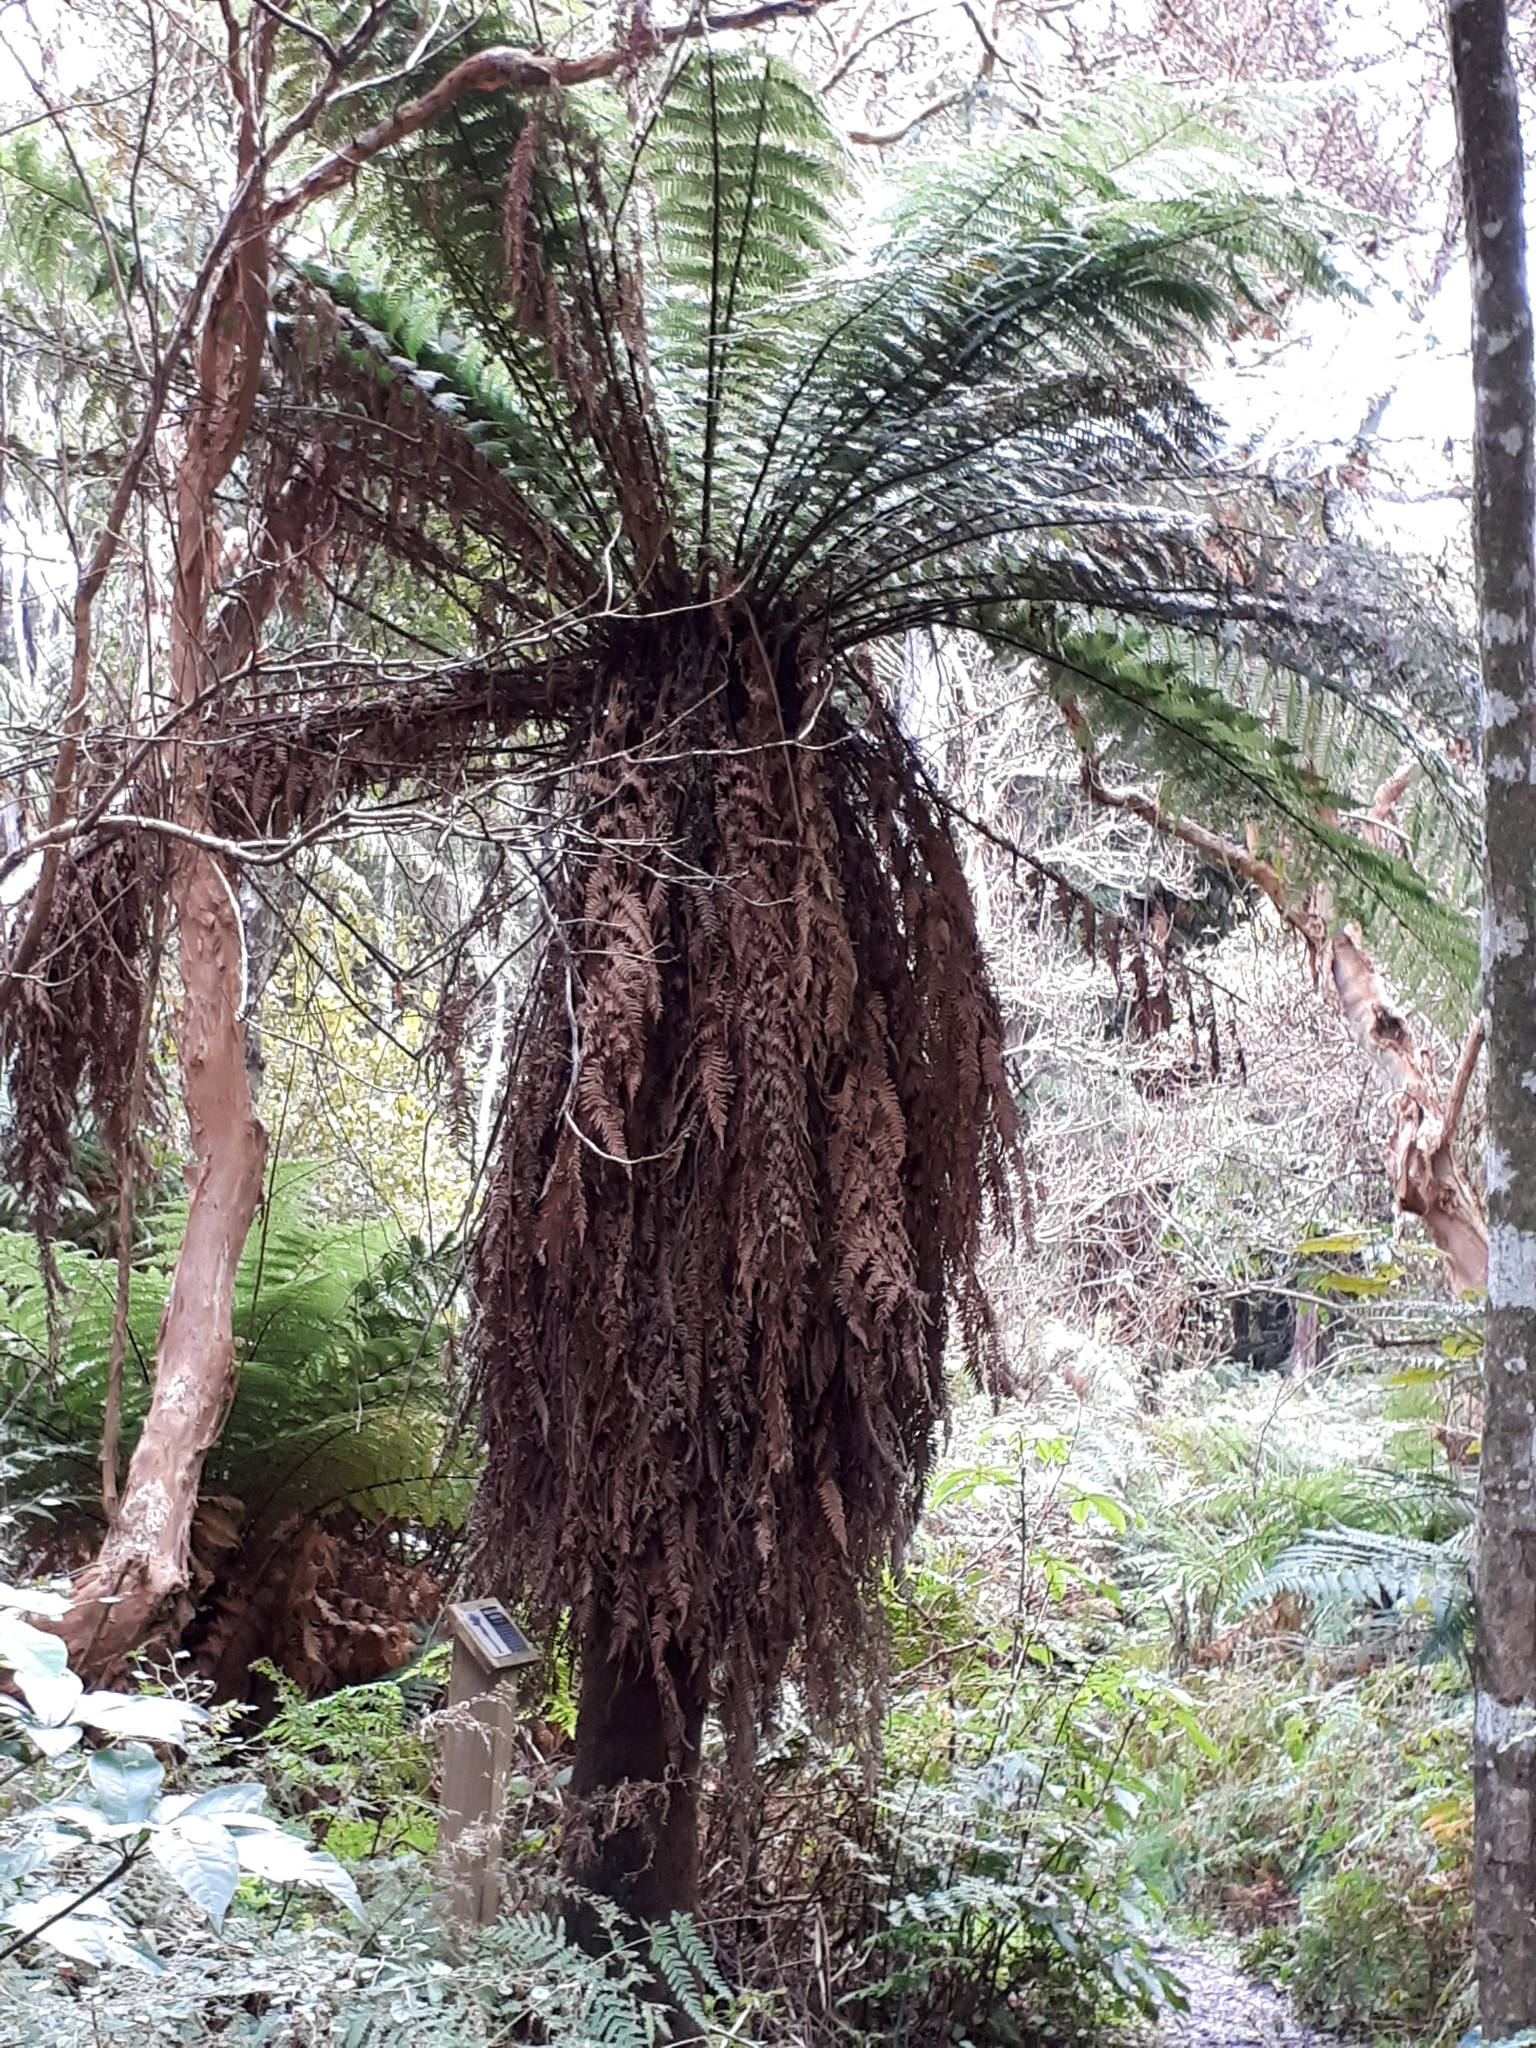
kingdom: Plantae
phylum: Tracheophyta
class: Polypodiopsida
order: Cyatheales
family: Dicksoniaceae
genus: Dicksonia
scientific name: Dicksonia fibrosa
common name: Golden tree fern
